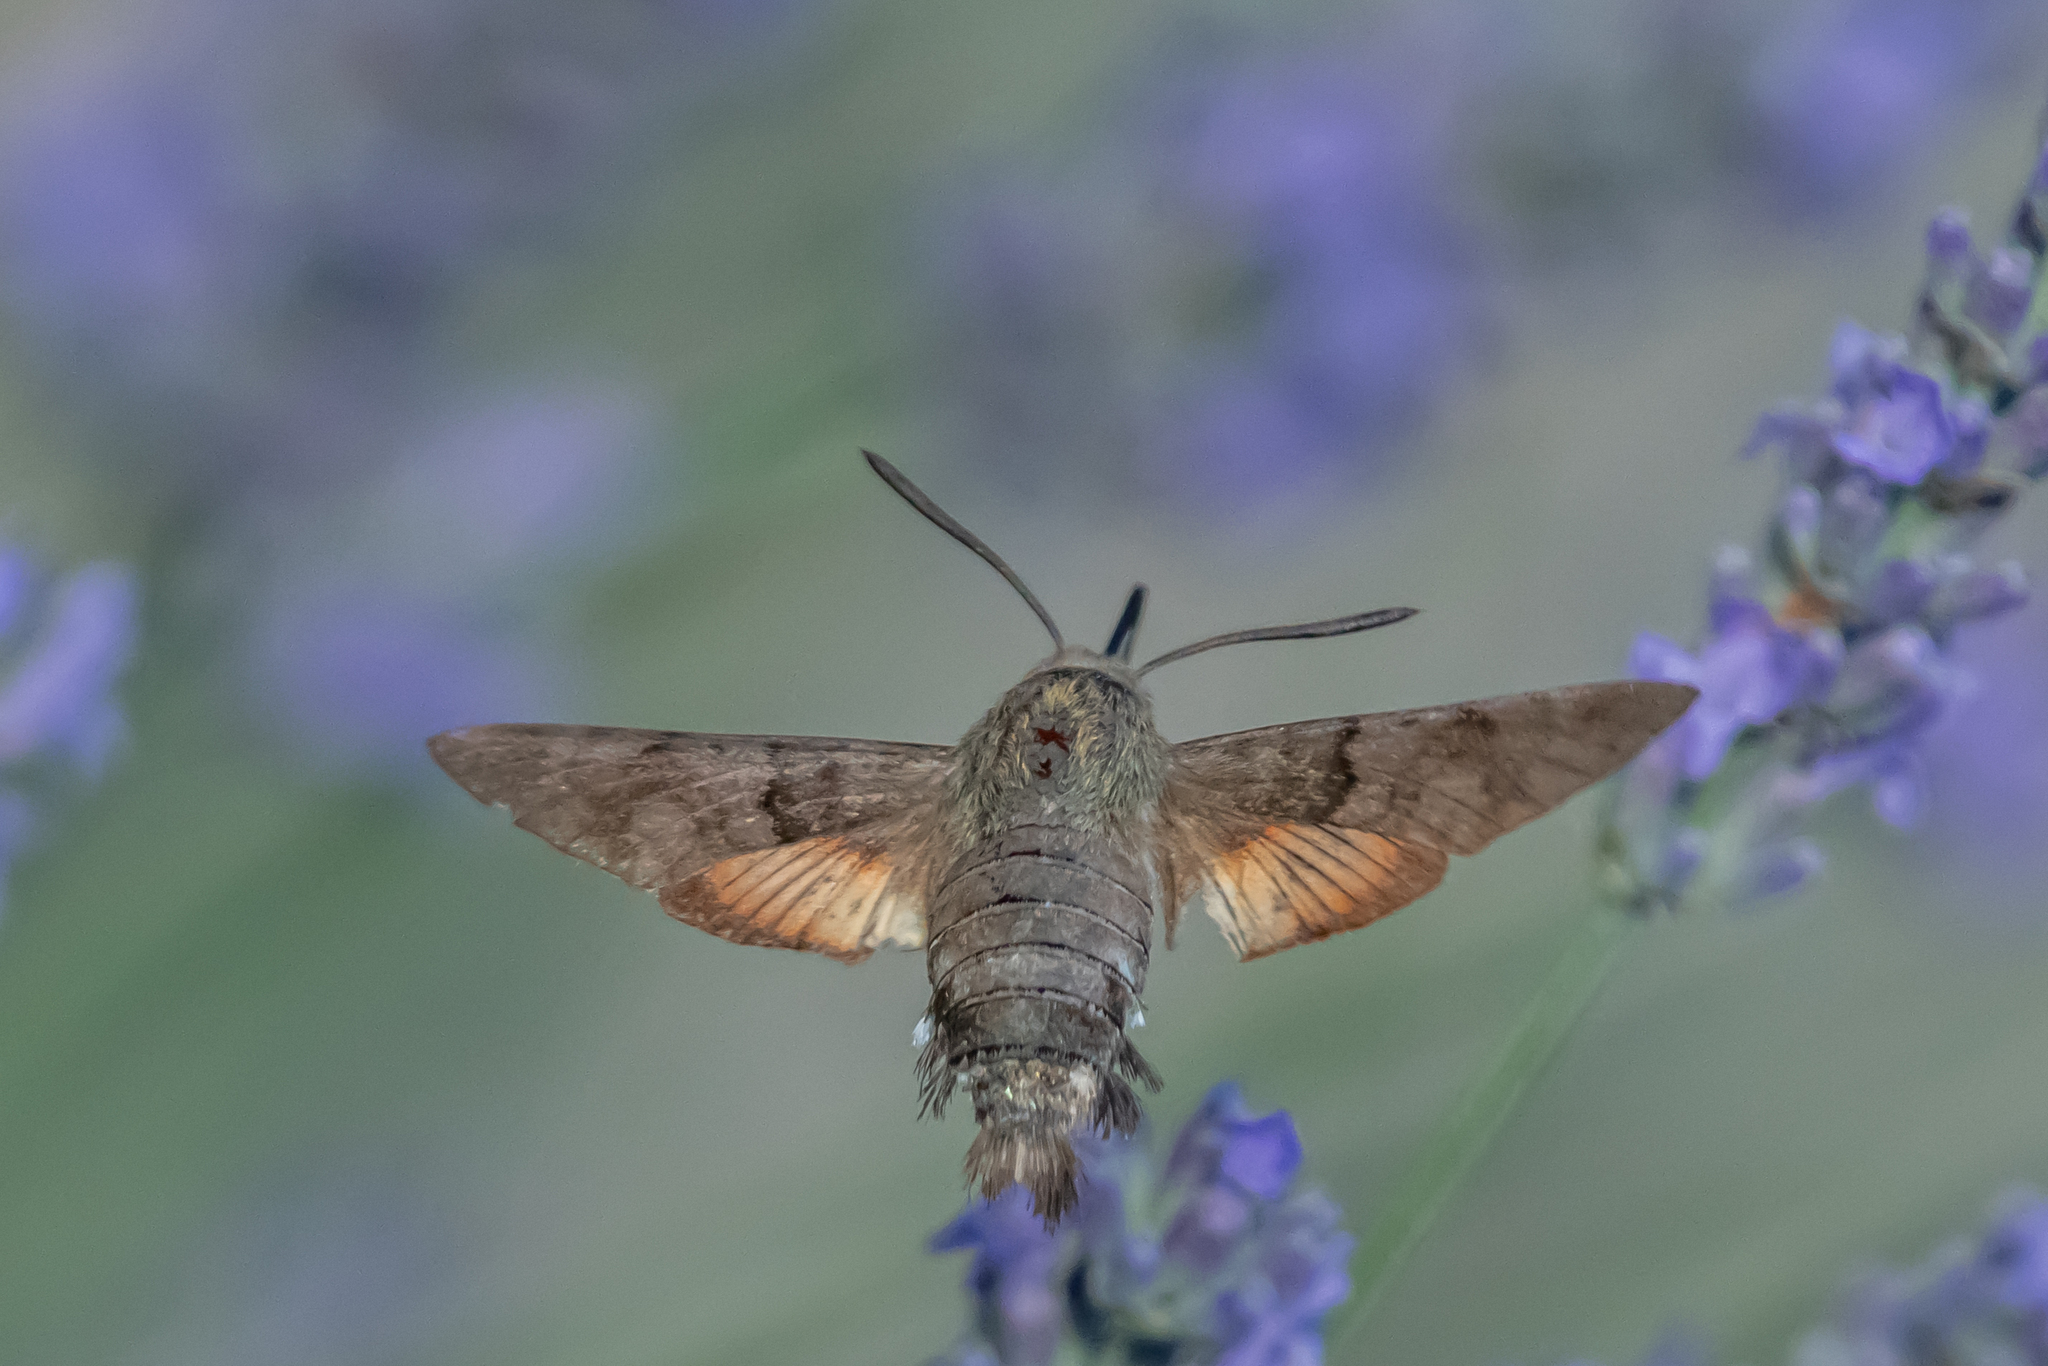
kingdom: Animalia
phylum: Arthropoda
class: Insecta
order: Lepidoptera
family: Sphingidae
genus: Macroglossum
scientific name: Macroglossum stellatarum
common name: Humming-bird hawk-moth
